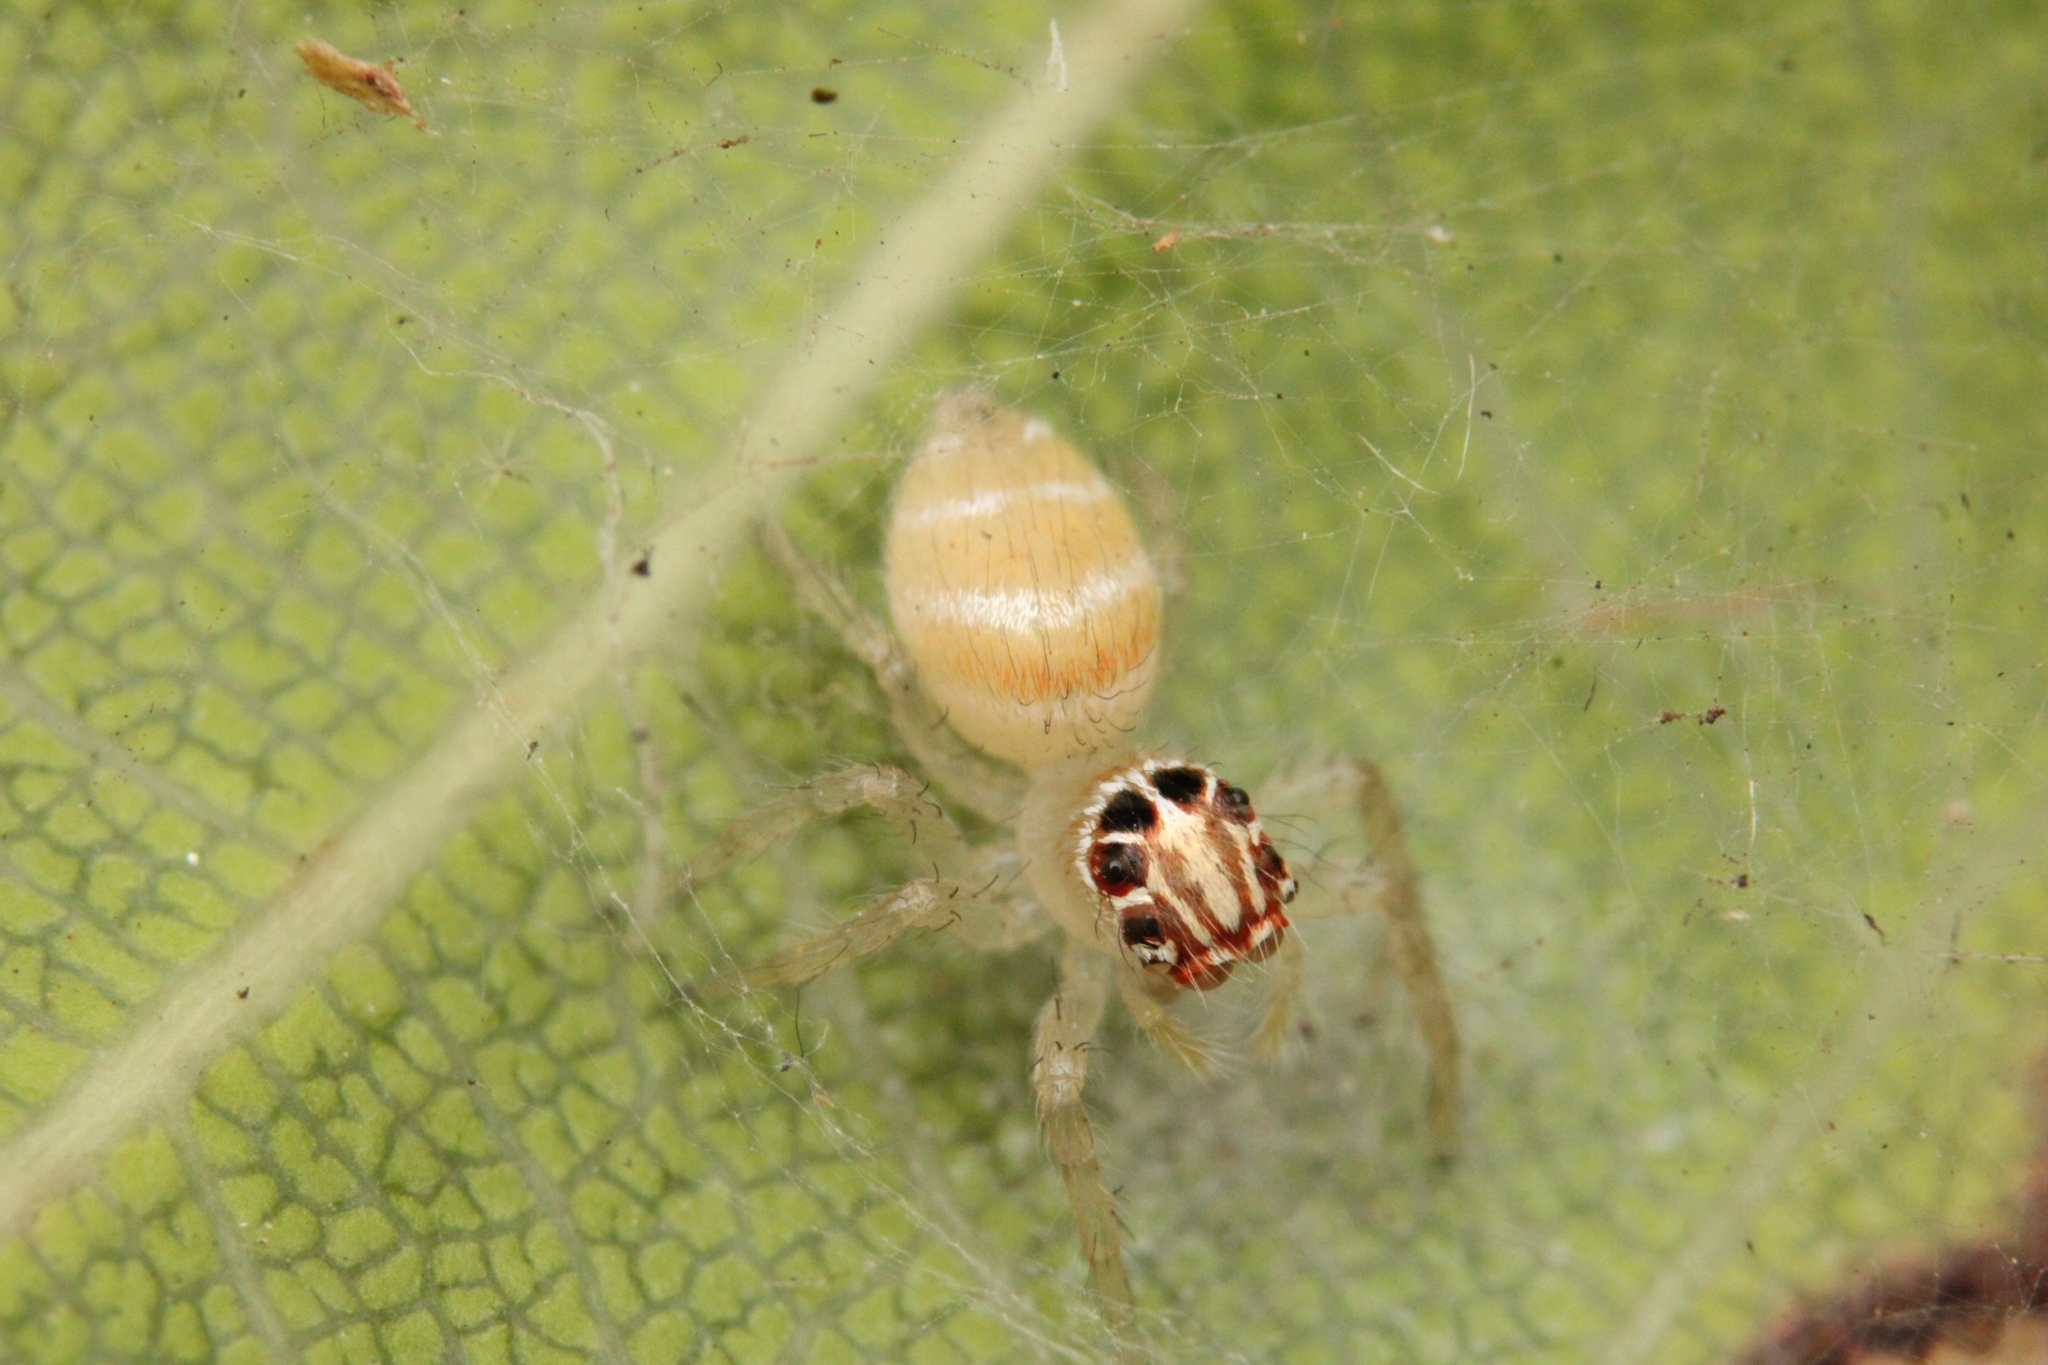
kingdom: Animalia
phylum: Arthropoda
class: Arachnida
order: Araneae
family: Salticidae
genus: Brancus
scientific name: Brancus mustelus
